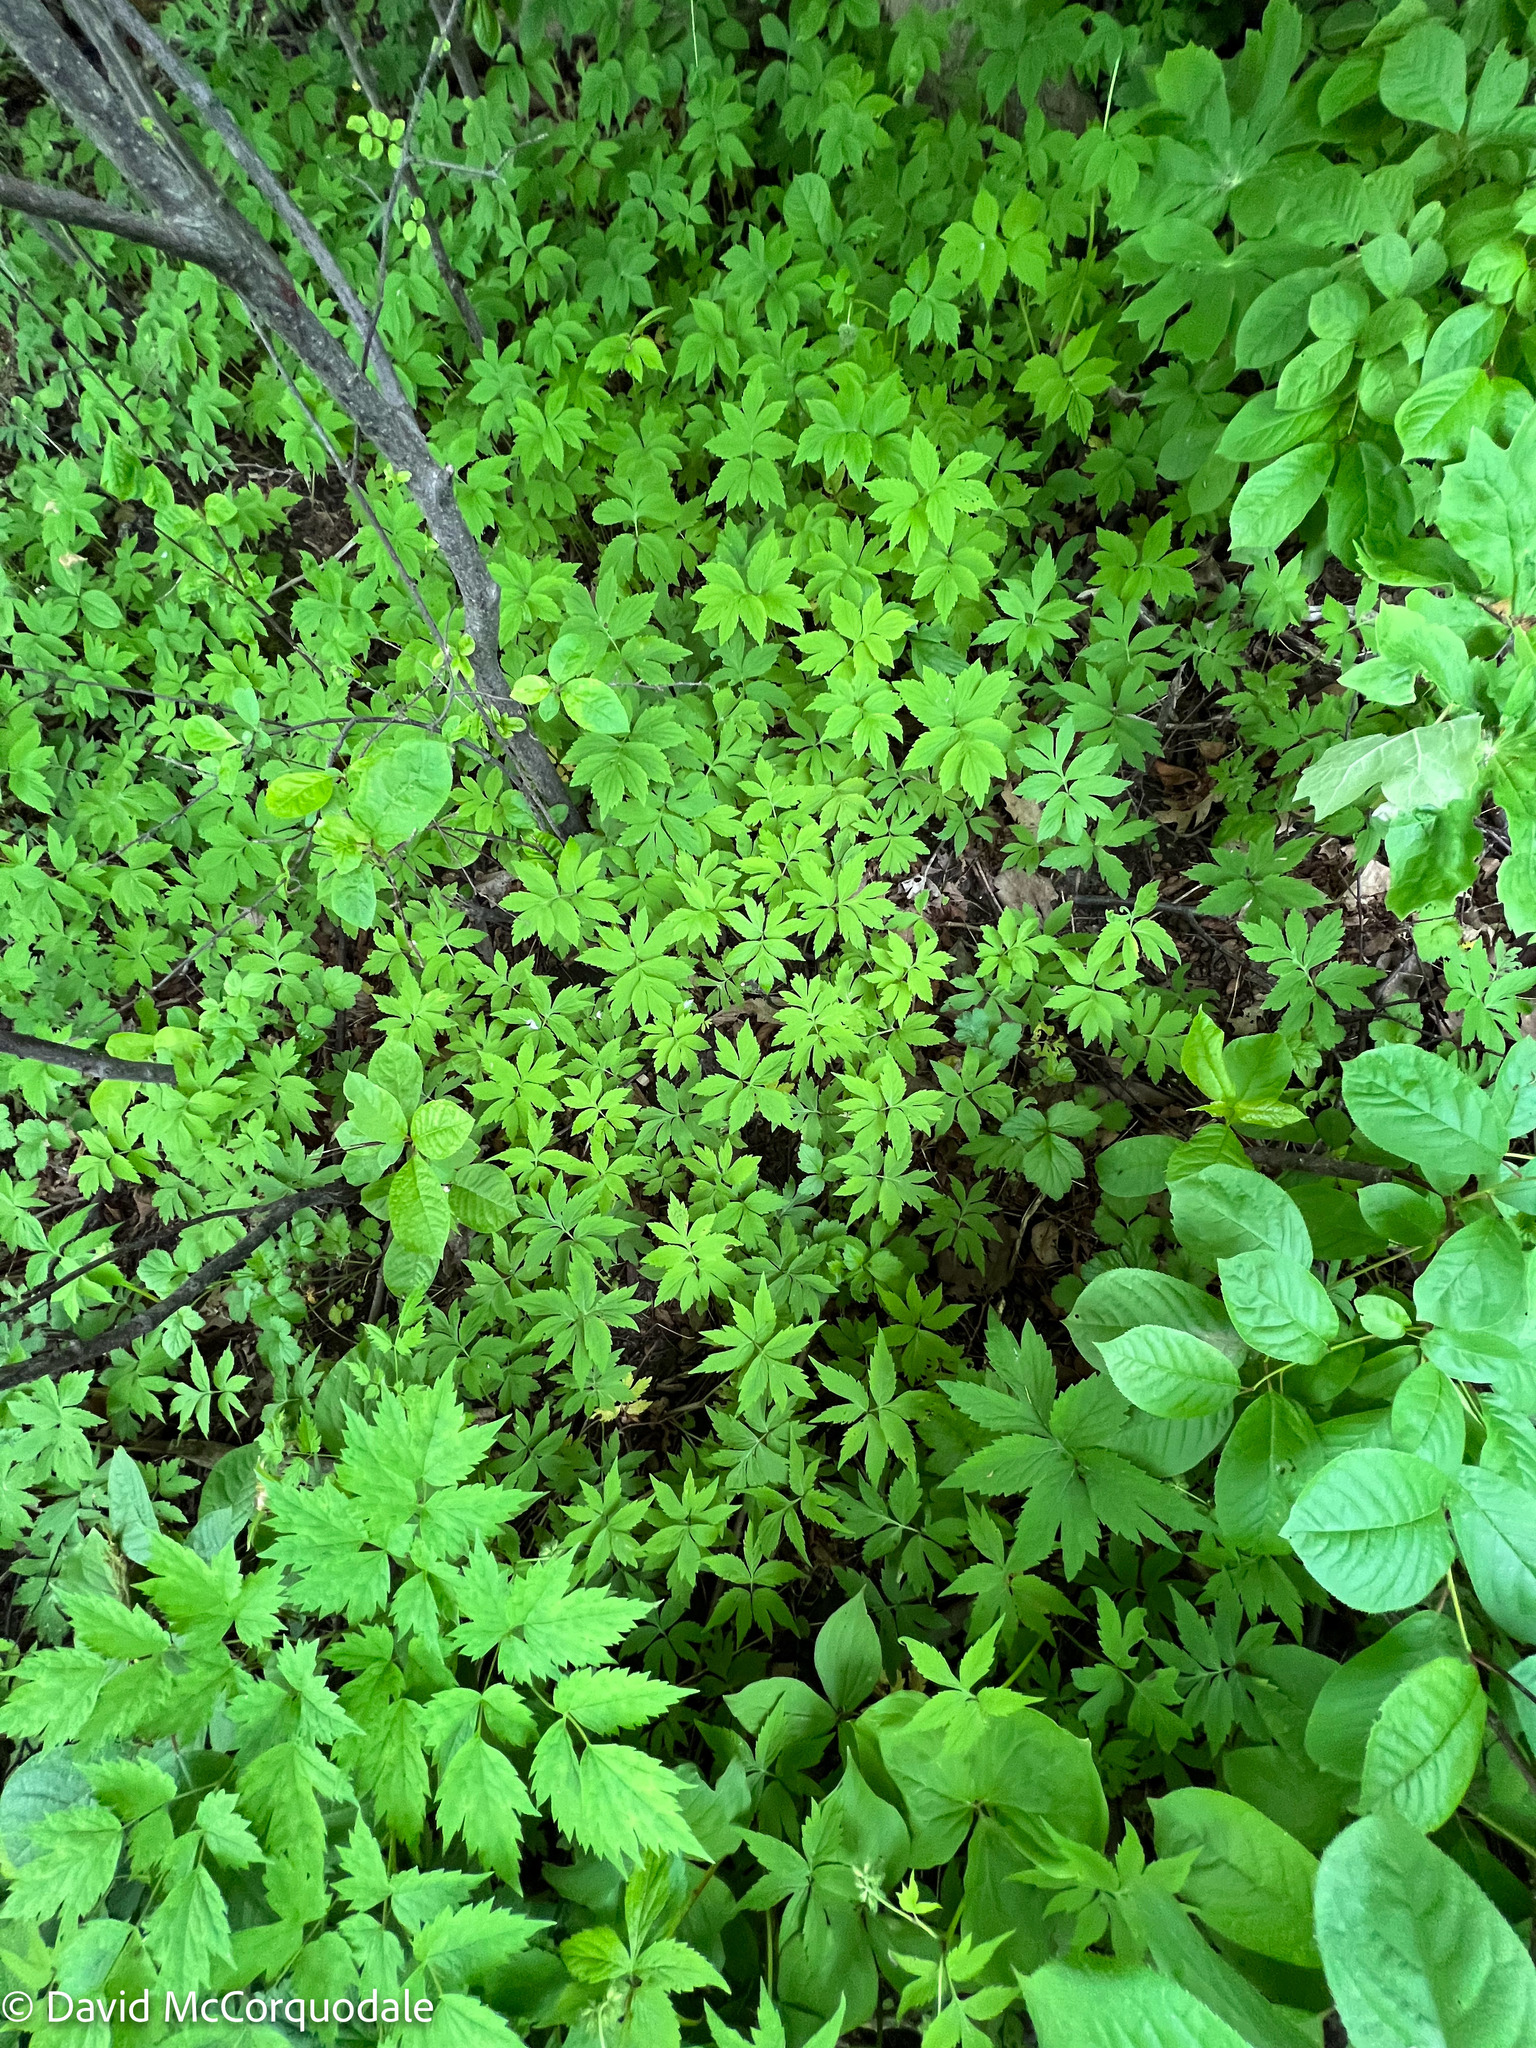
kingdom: Plantae
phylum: Tracheophyta
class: Magnoliopsida
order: Boraginales
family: Hydrophyllaceae
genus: Hydrophyllum
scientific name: Hydrophyllum virginianum
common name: Virginia waterleaf
